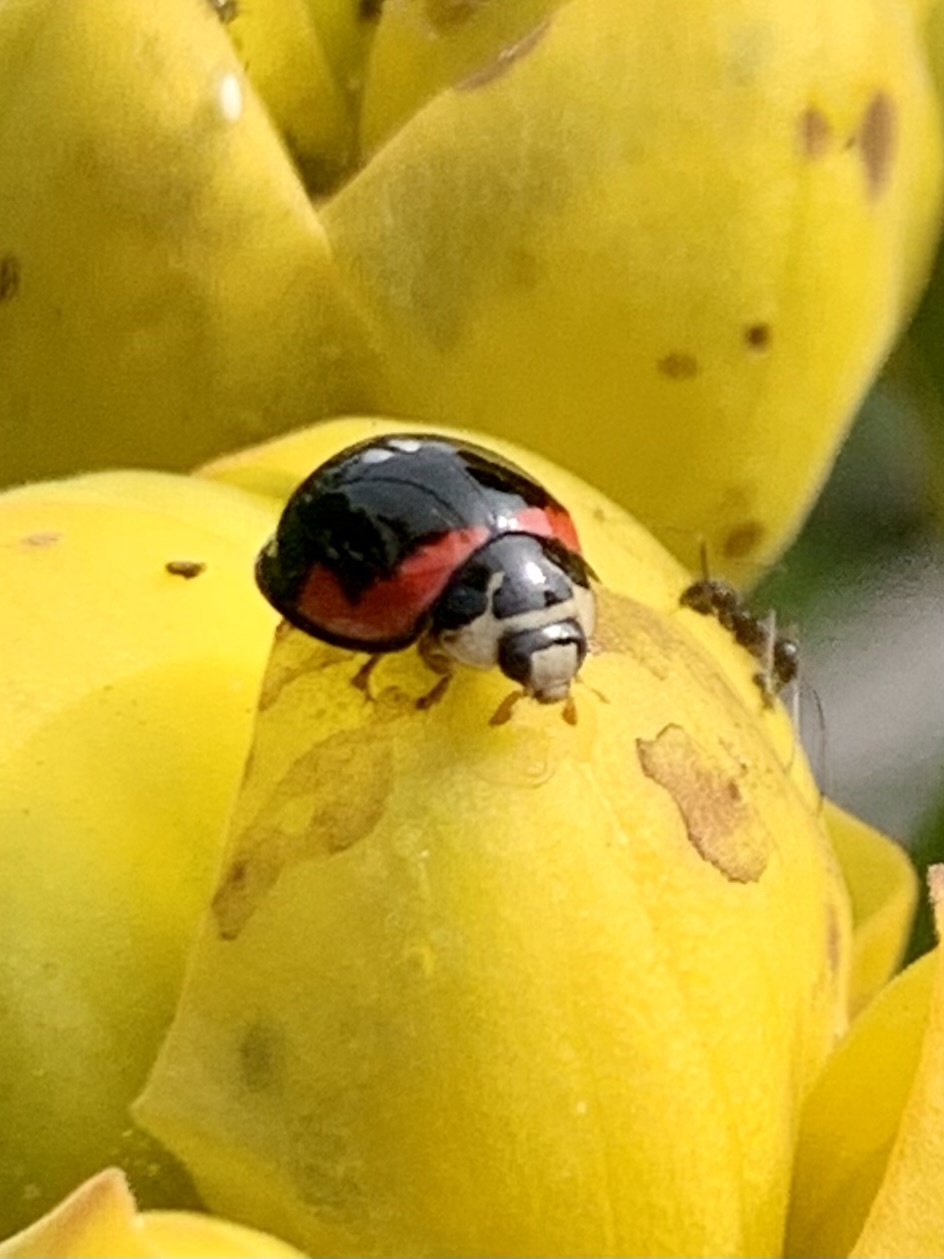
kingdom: Animalia
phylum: Arthropoda
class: Insecta
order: Coleoptera
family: Coccinellidae
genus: Cheilomenes
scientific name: Cheilomenes sexmaculata
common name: Ladybird beetle
